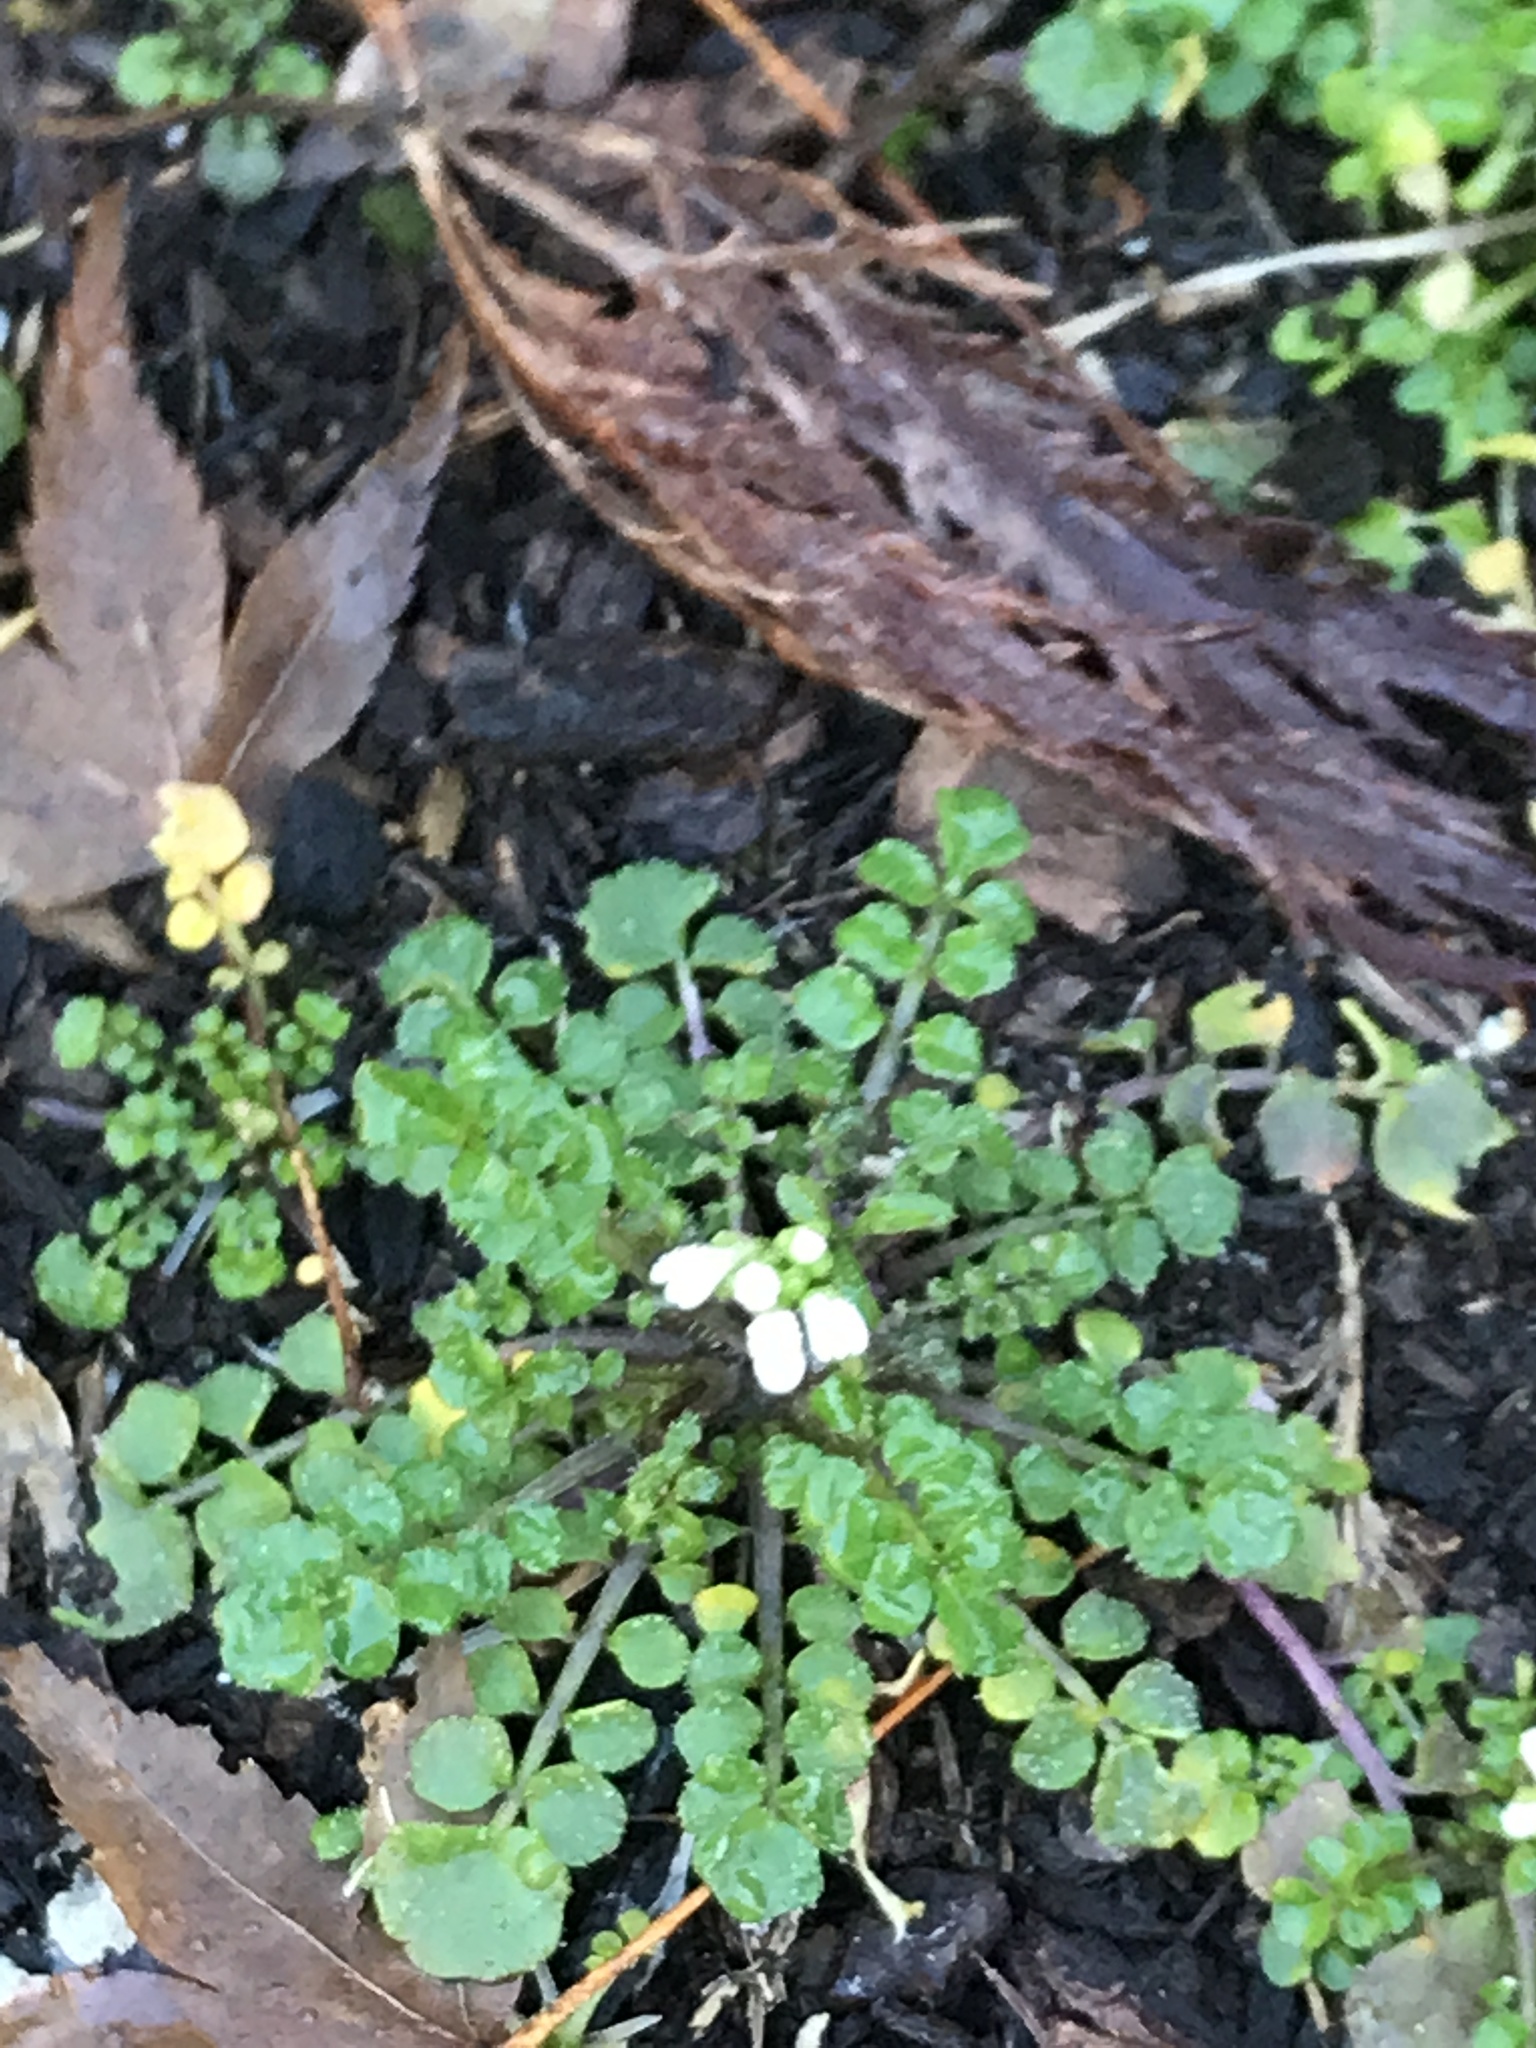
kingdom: Plantae
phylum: Tracheophyta
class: Magnoliopsida
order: Brassicales
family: Brassicaceae
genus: Cardamine
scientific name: Cardamine hirsuta
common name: Hairy bittercress
